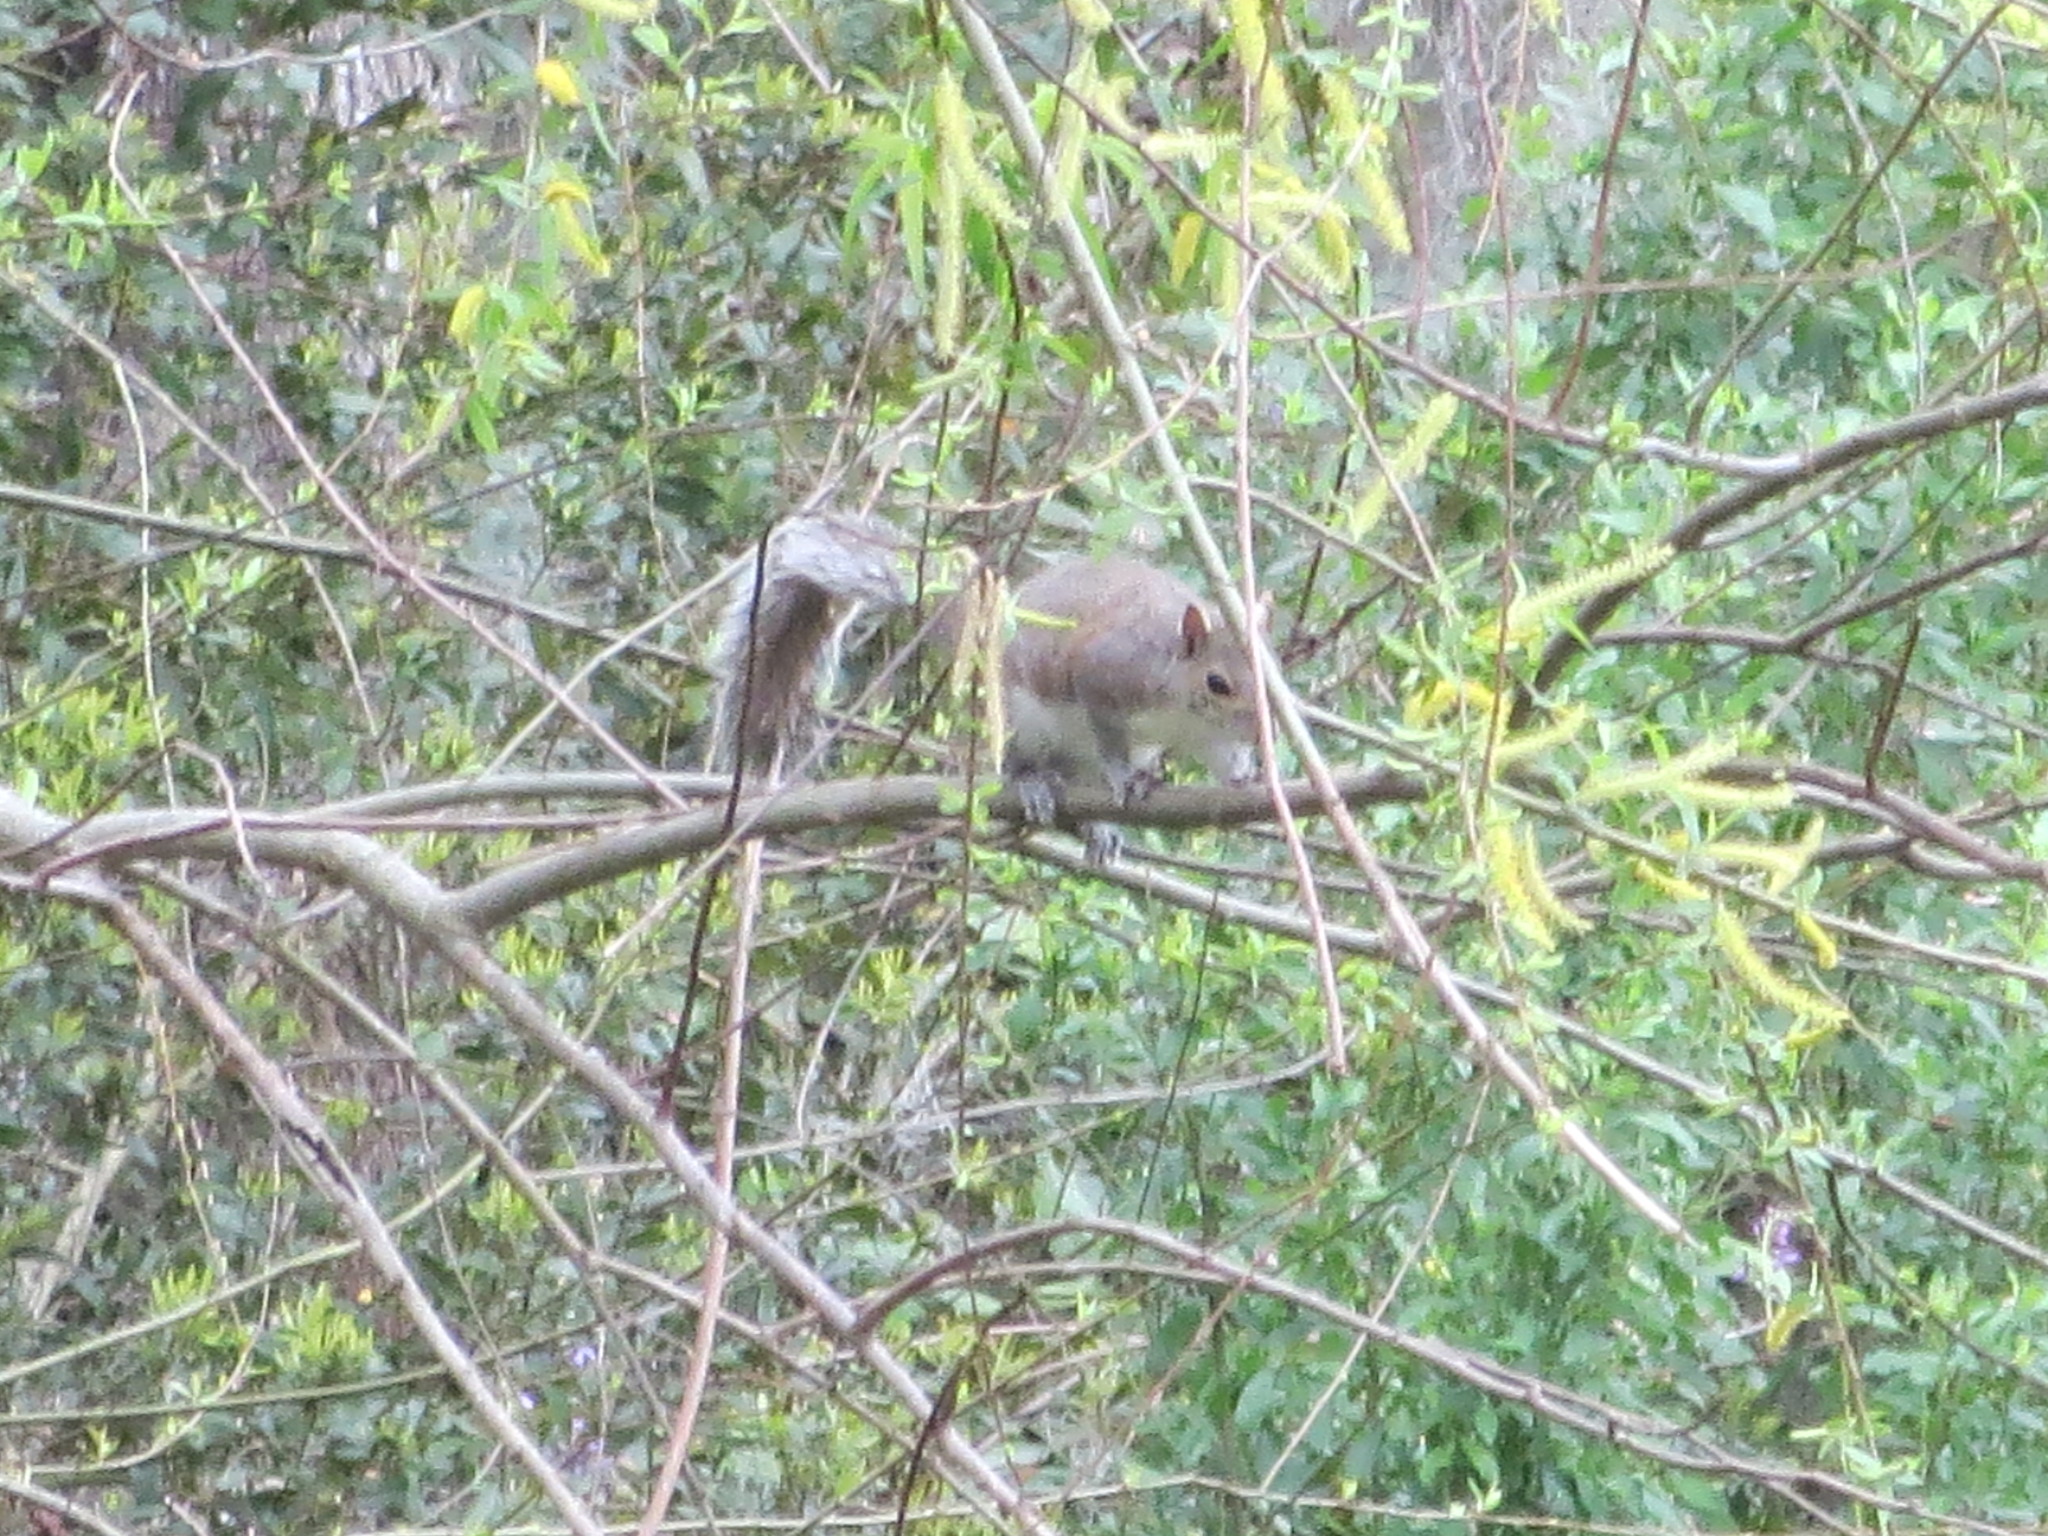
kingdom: Animalia
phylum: Chordata
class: Mammalia
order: Rodentia
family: Sciuridae
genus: Sciurus
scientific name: Sciurus carolinensis
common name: Eastern gray squirrel
